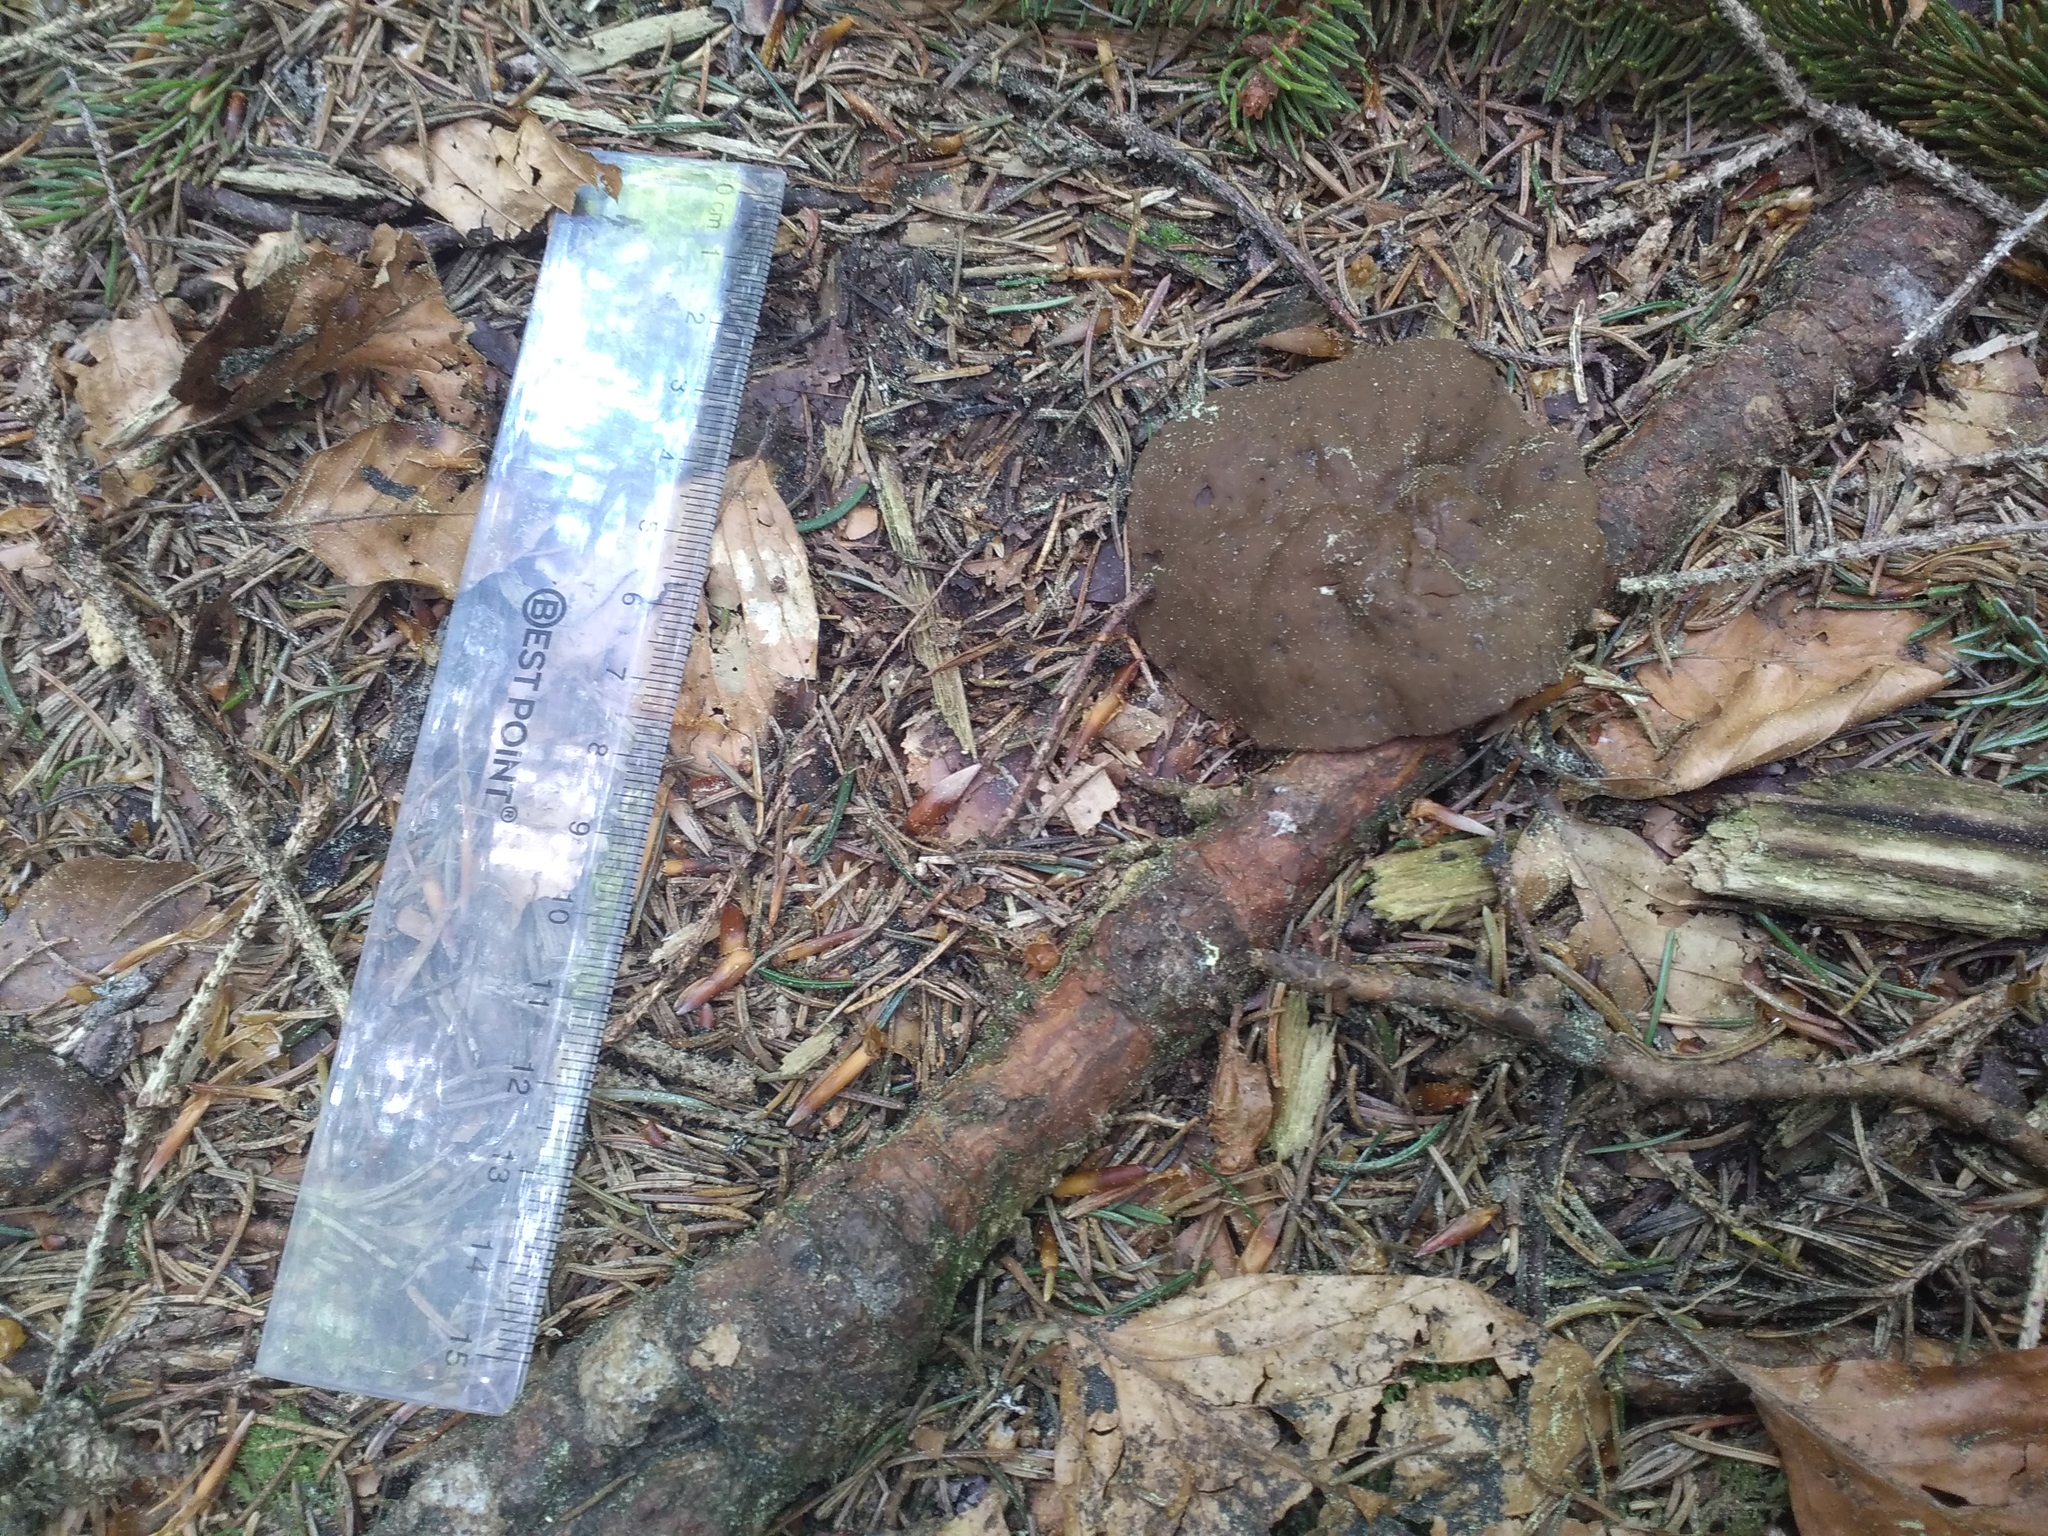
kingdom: Fungi
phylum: Ascomycota
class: Pezizomycetes
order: Pezizales
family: Discinaceae
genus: Discina
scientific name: Discina
